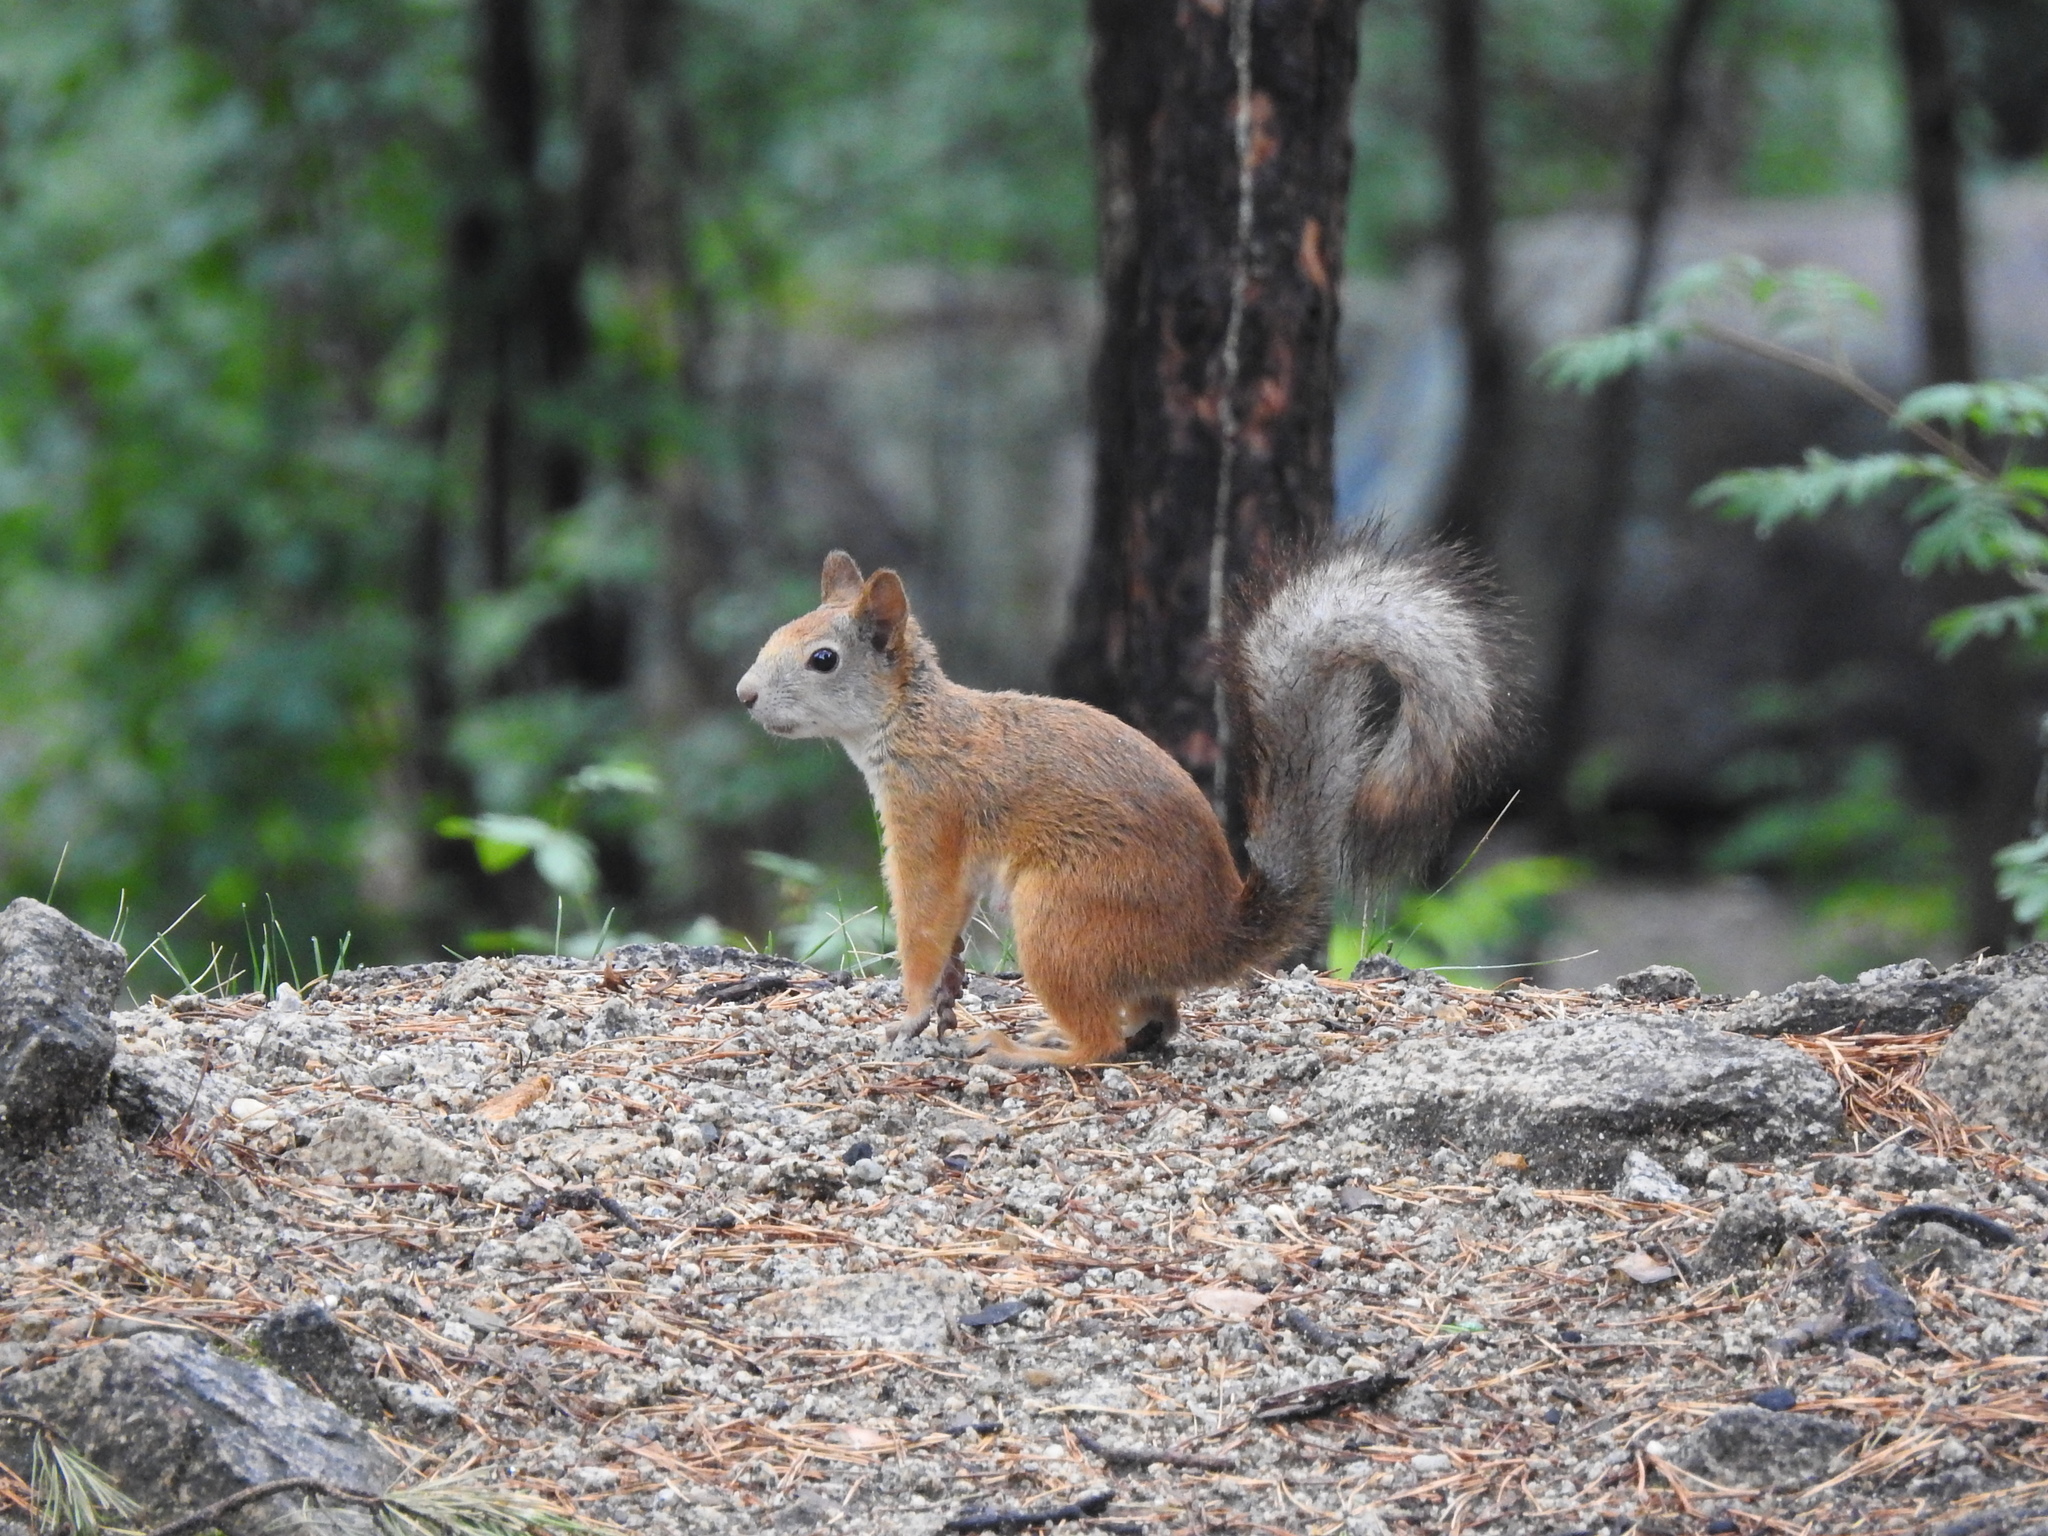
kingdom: Animalia
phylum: Chordata
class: Mammalia
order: Rodentia
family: Sciuridae
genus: Sciurus
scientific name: Sciurus vulgaris
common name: Eurasian red squirrel
